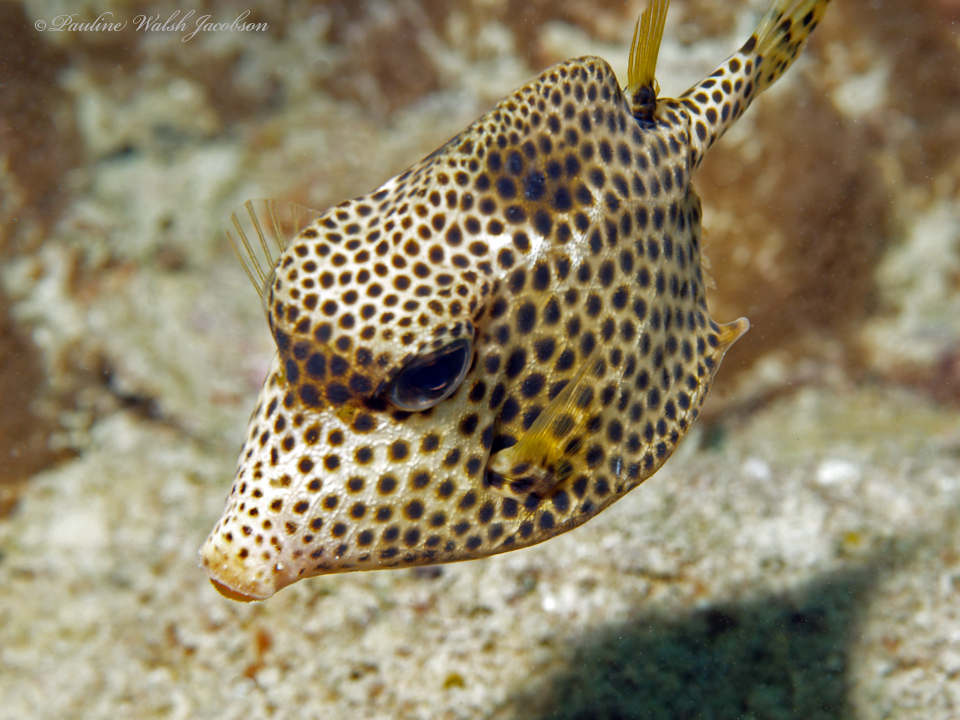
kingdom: Animalia
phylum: Chordata
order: Tetraodontiformes
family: Ostraciidae
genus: Lactophrys
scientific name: Lactophrys bicaudalis
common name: Spotted trunkfish
